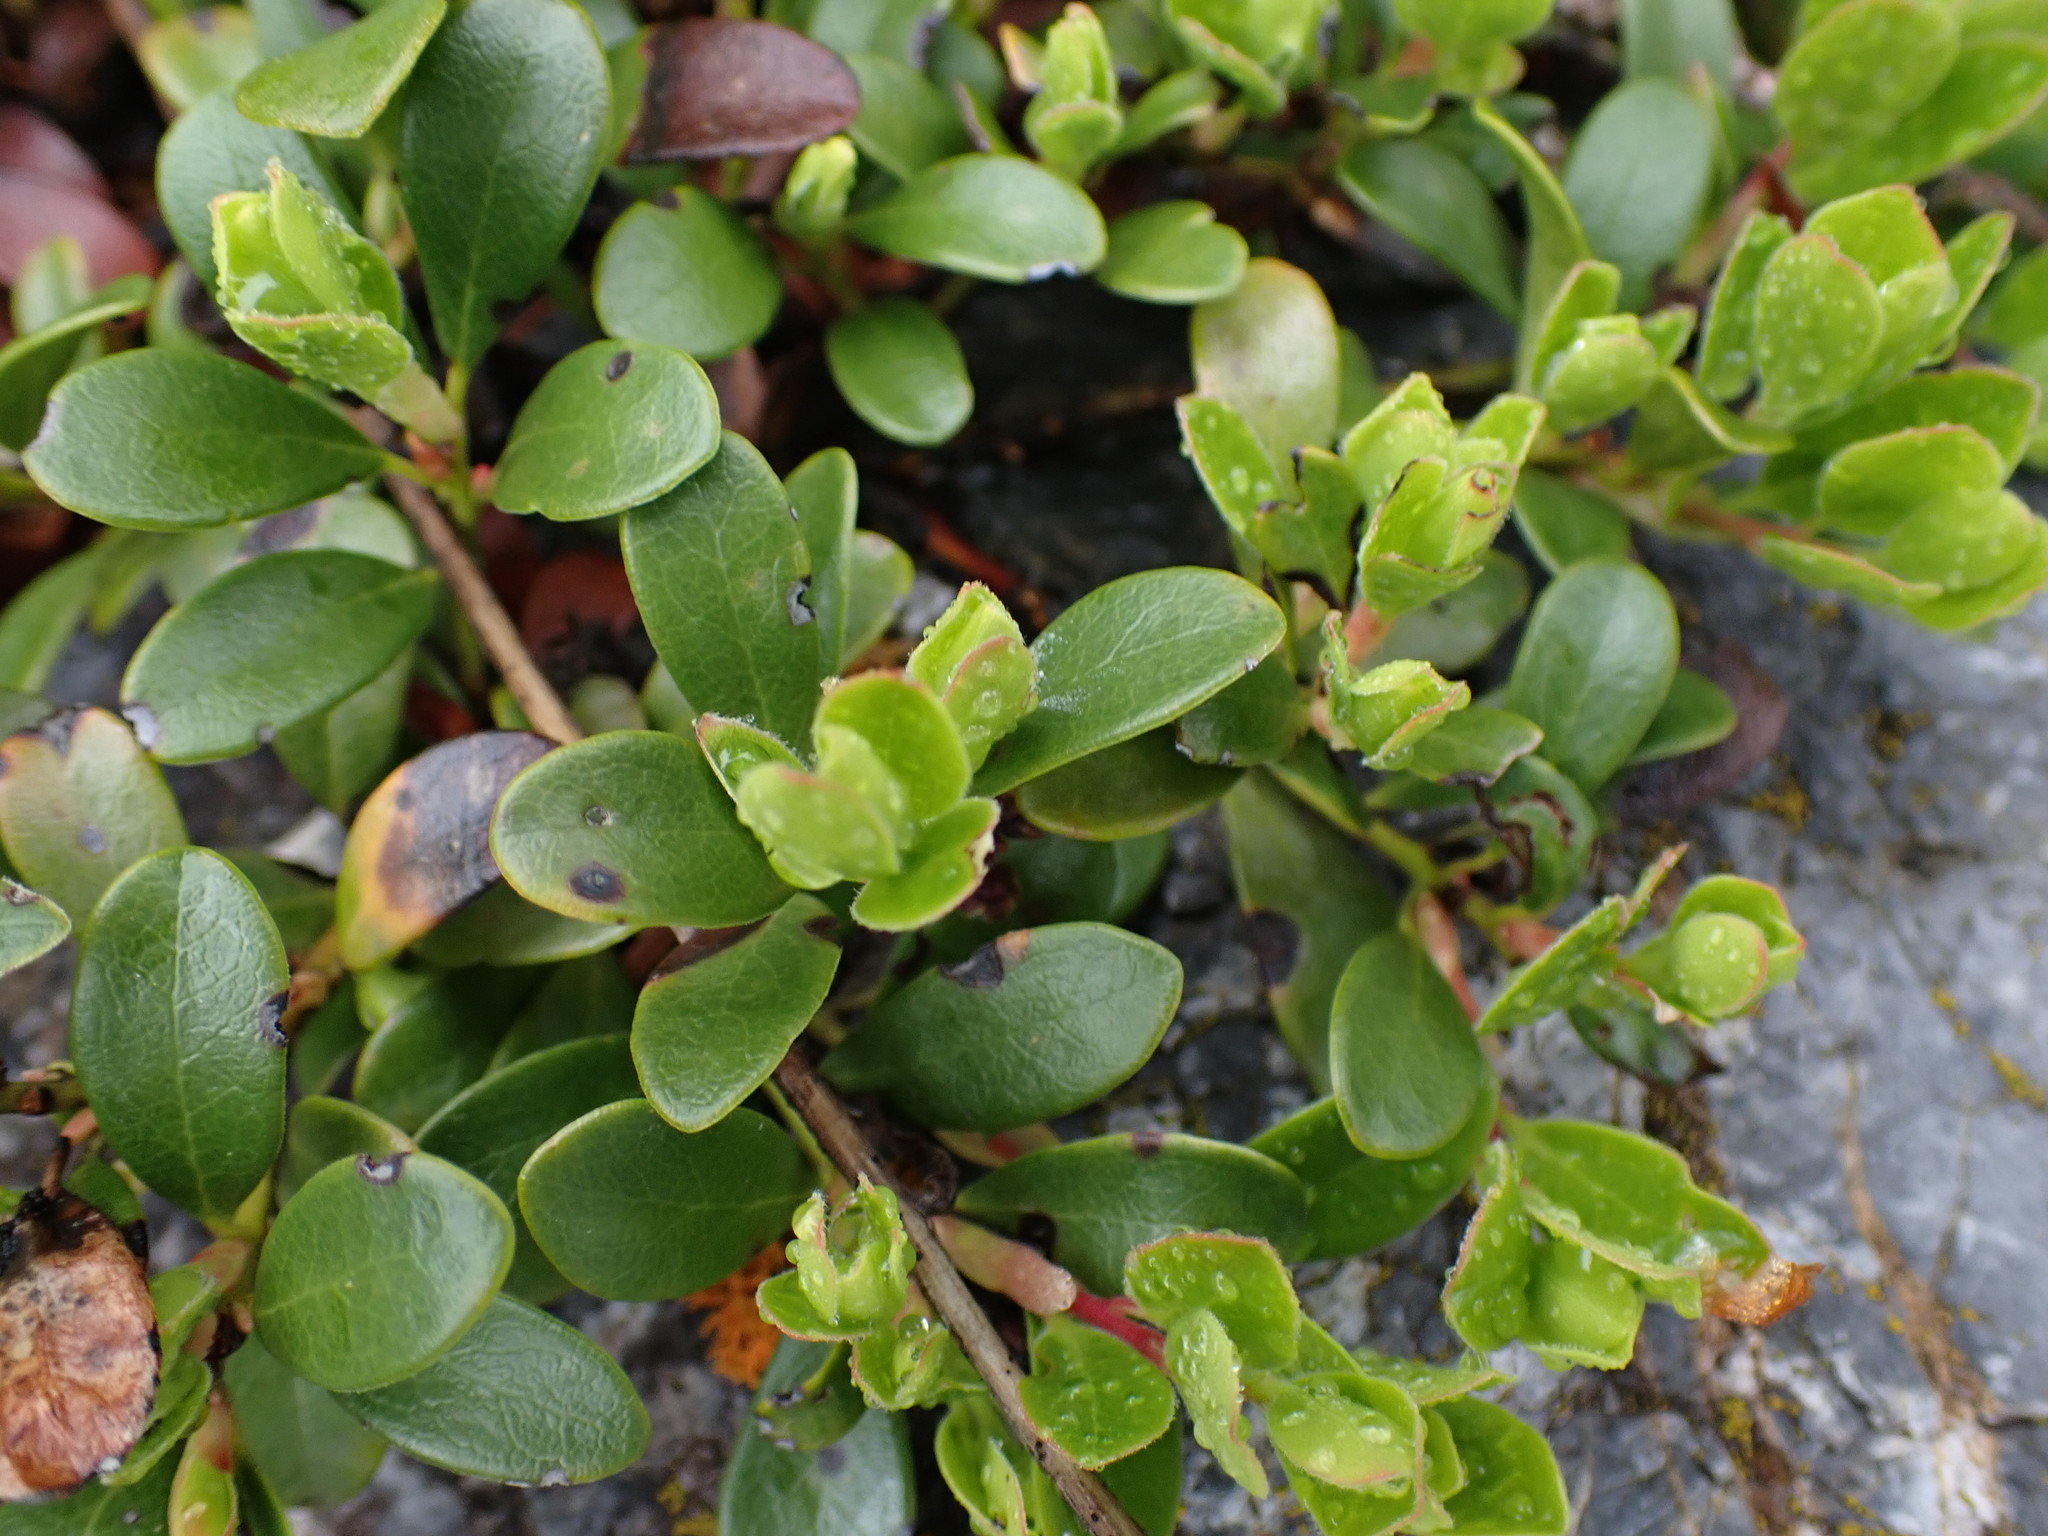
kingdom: Plantae
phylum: Tracheophyta
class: Magnoliopsida
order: Ericales
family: Ericaceae
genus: Arctostaphylos
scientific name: Arctostaphylos uva-ursi
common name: Bearberry
